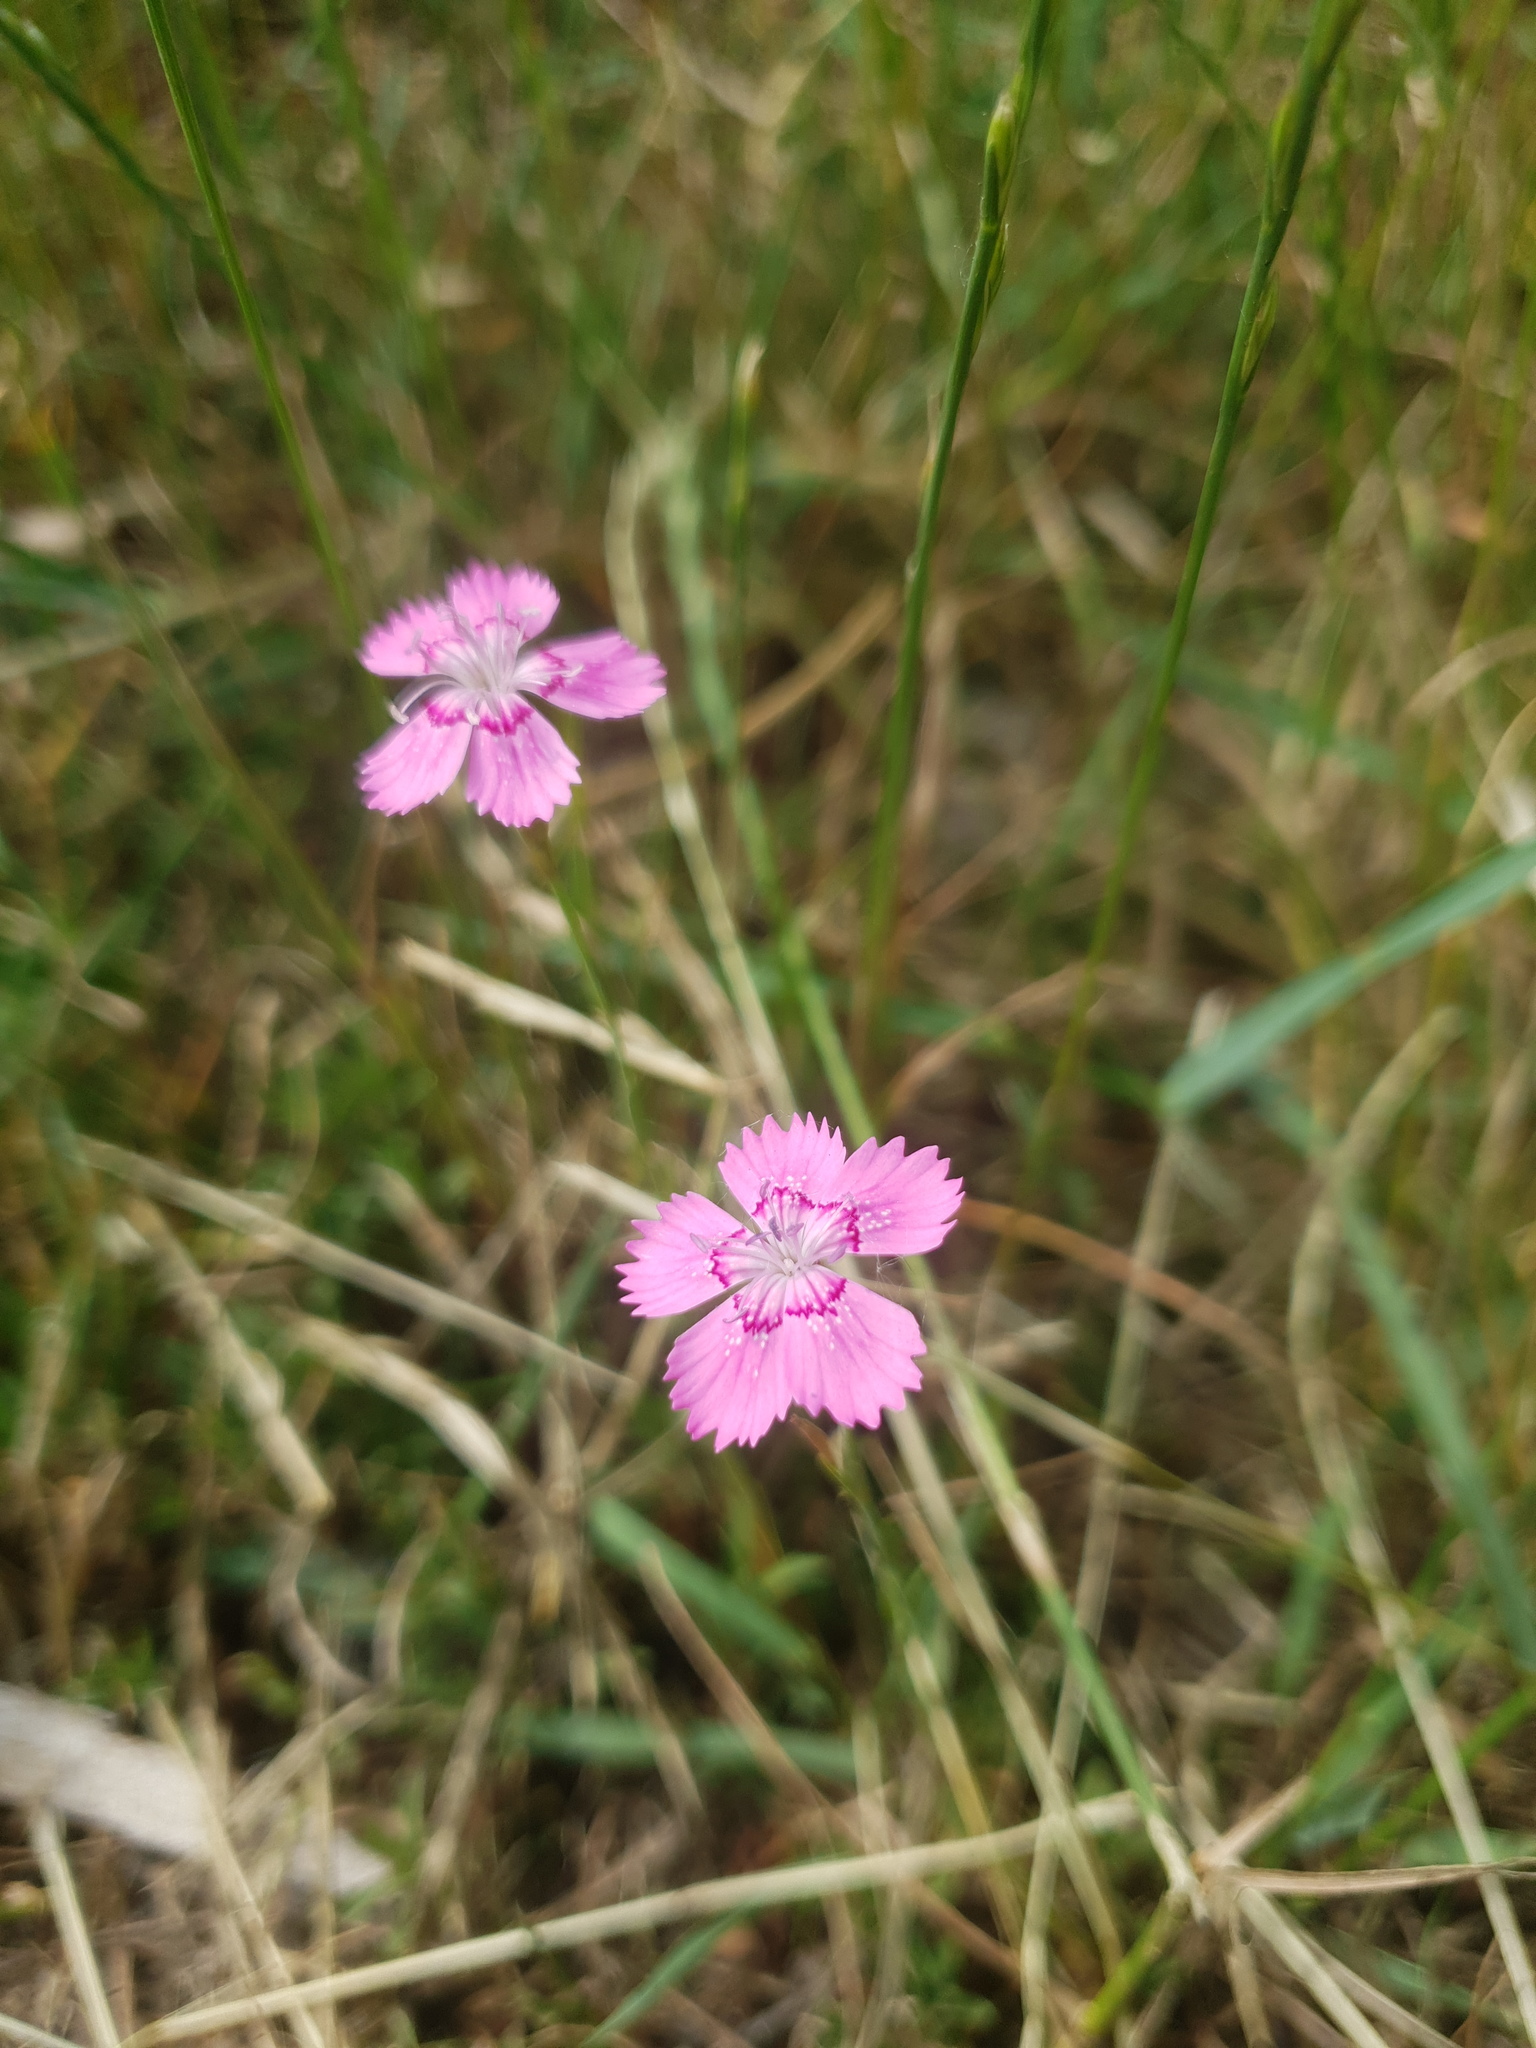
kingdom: Plantae
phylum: Tracheophyta
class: Magnoliopsida
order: Caryophyllales
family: Caryophyllaceae
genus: Dianthus
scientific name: Dianthus deltoides
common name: Maiden pink
